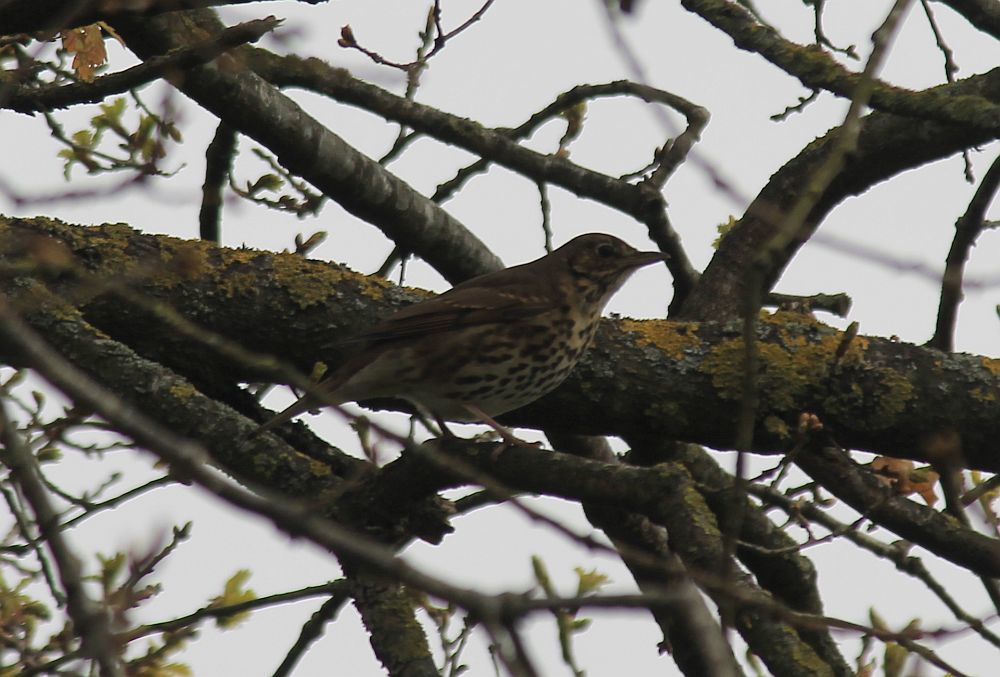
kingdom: Animalia
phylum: Chordata
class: Aves
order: Passeriformes
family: Turdidae
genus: Turdus
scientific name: Turdus philomelos
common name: Song thrush
